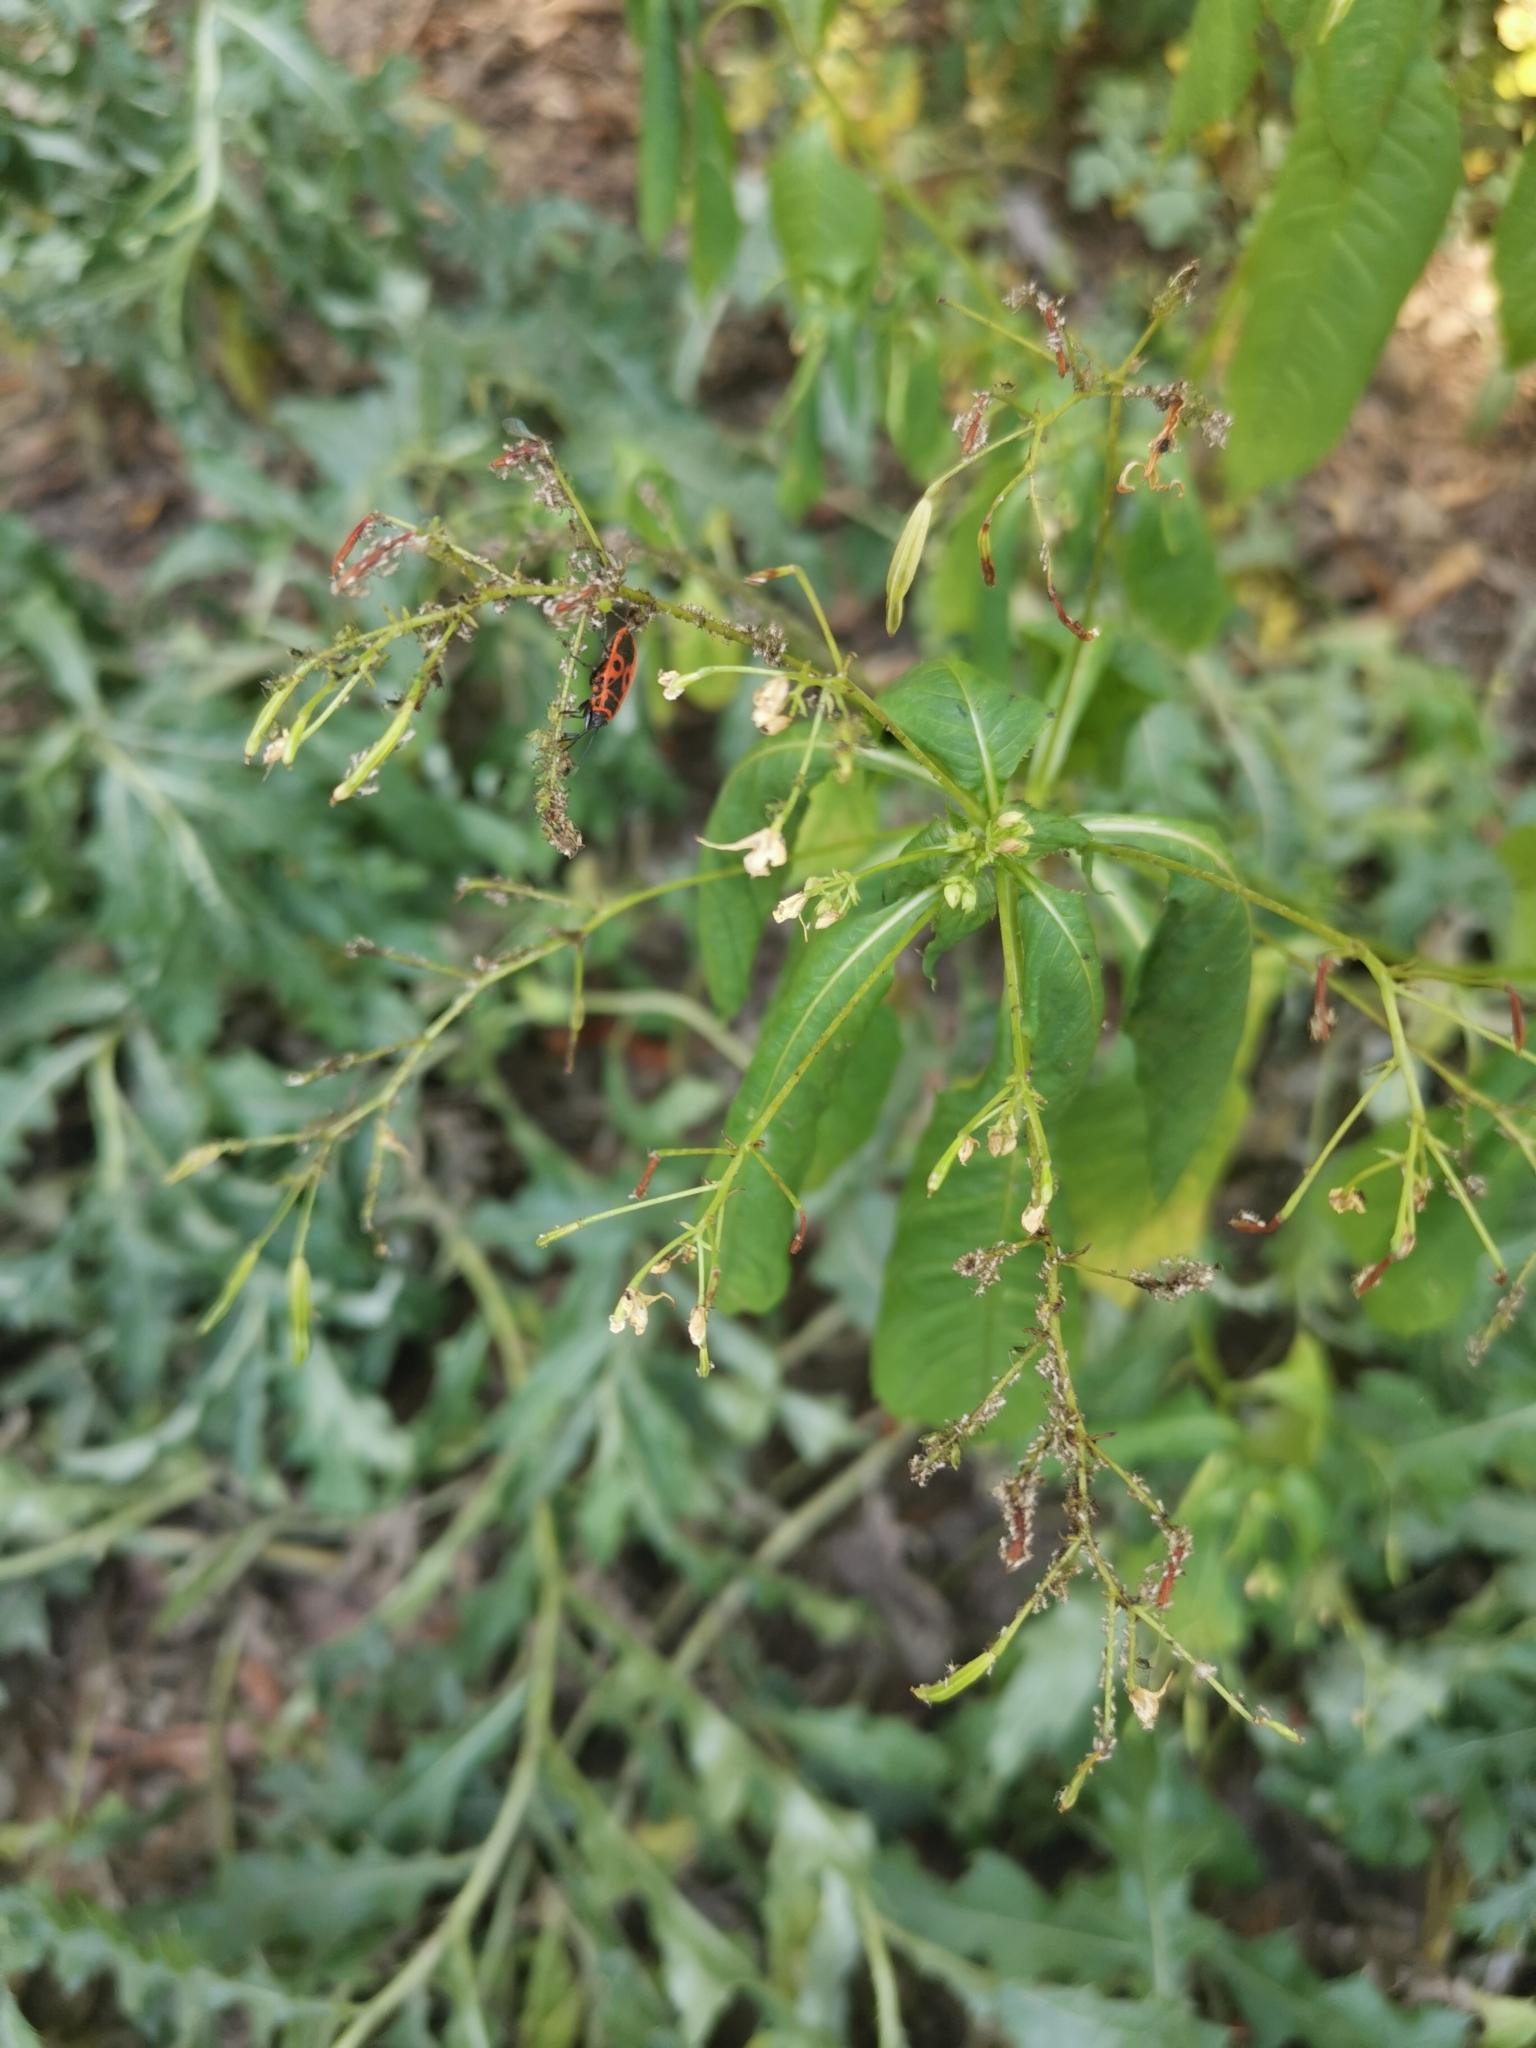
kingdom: Plantae
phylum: Tracheophyta
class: Magnoliopsida
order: Ericales
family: Balsaminaceae
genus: Impatiens
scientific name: Impatiens parviflora
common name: Small balsam
